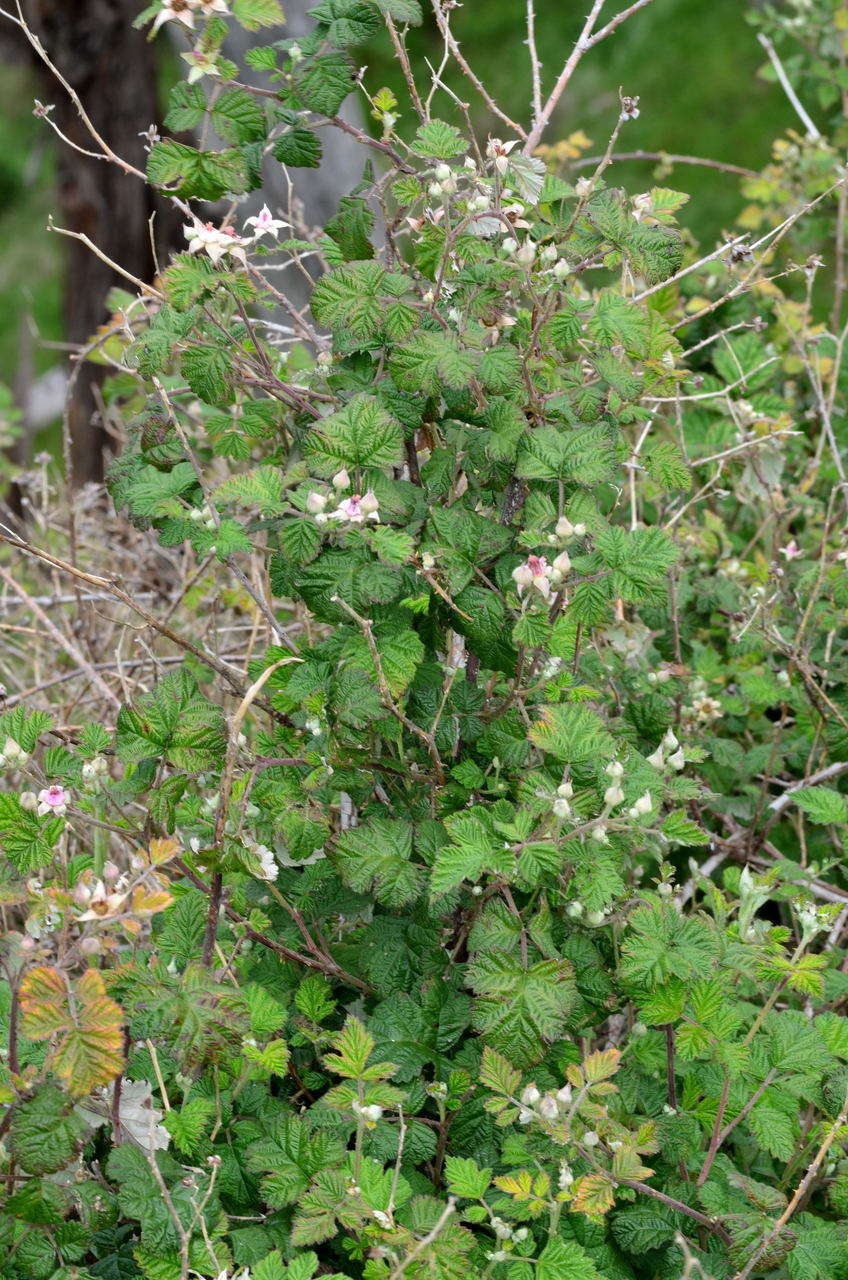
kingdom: Plantae
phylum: Tracheophyta
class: Magnoliopsida
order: Rosales
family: Rosaceae
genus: Rubus
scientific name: Rubus parvifolius
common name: Threeleaf blackberry
